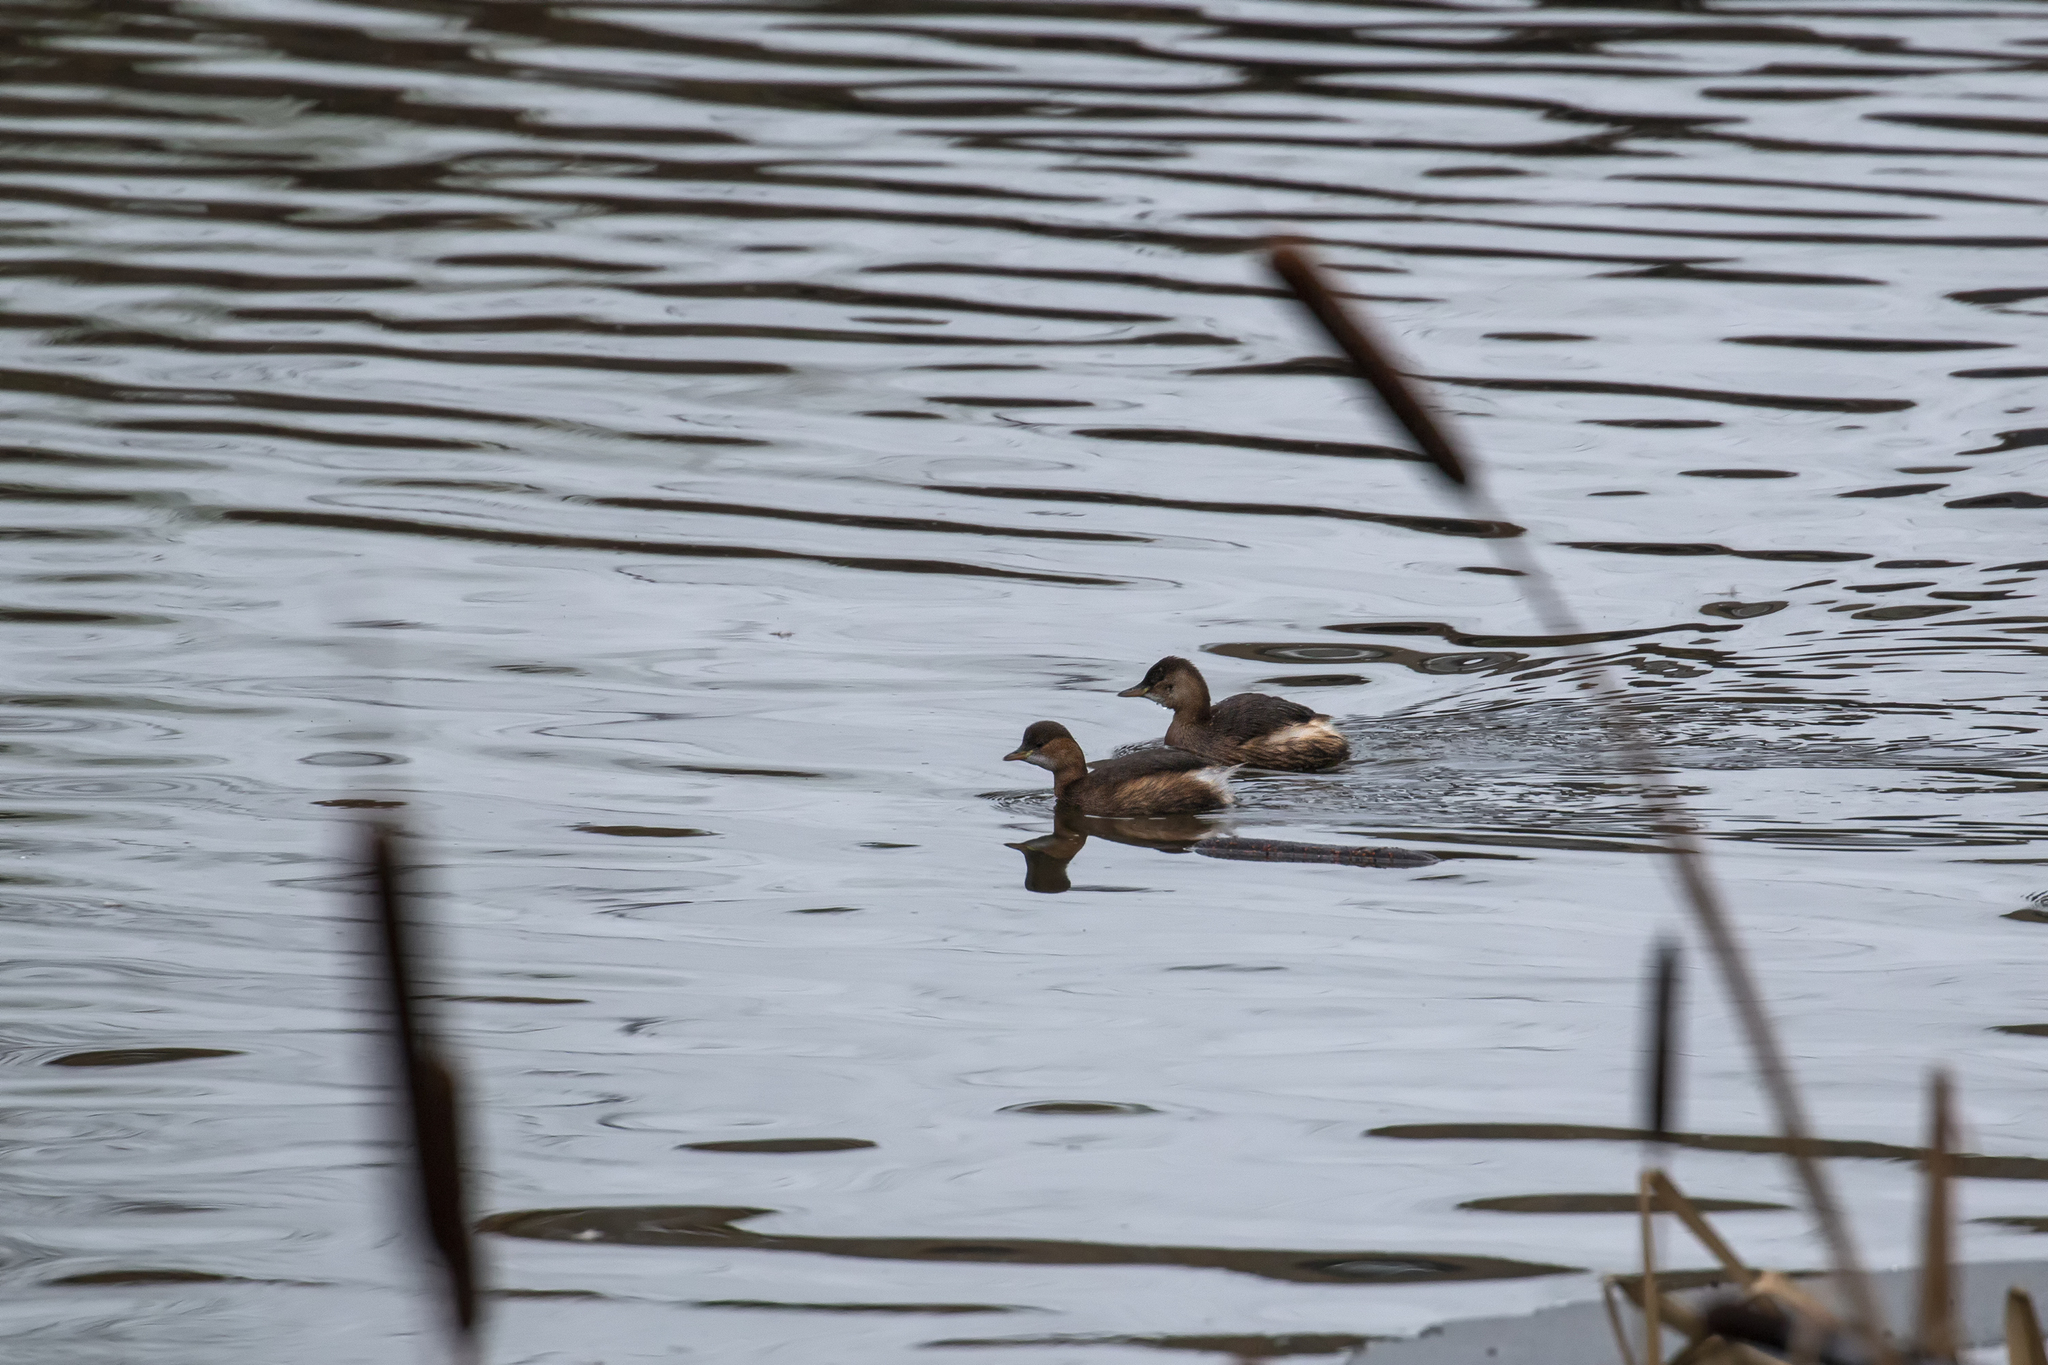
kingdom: Animalia
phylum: Chordata
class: Aves
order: Podicipediformes
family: Podicipedidae
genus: Tachybaptus
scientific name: Tachybaptus ruficollis
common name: Little grebe
